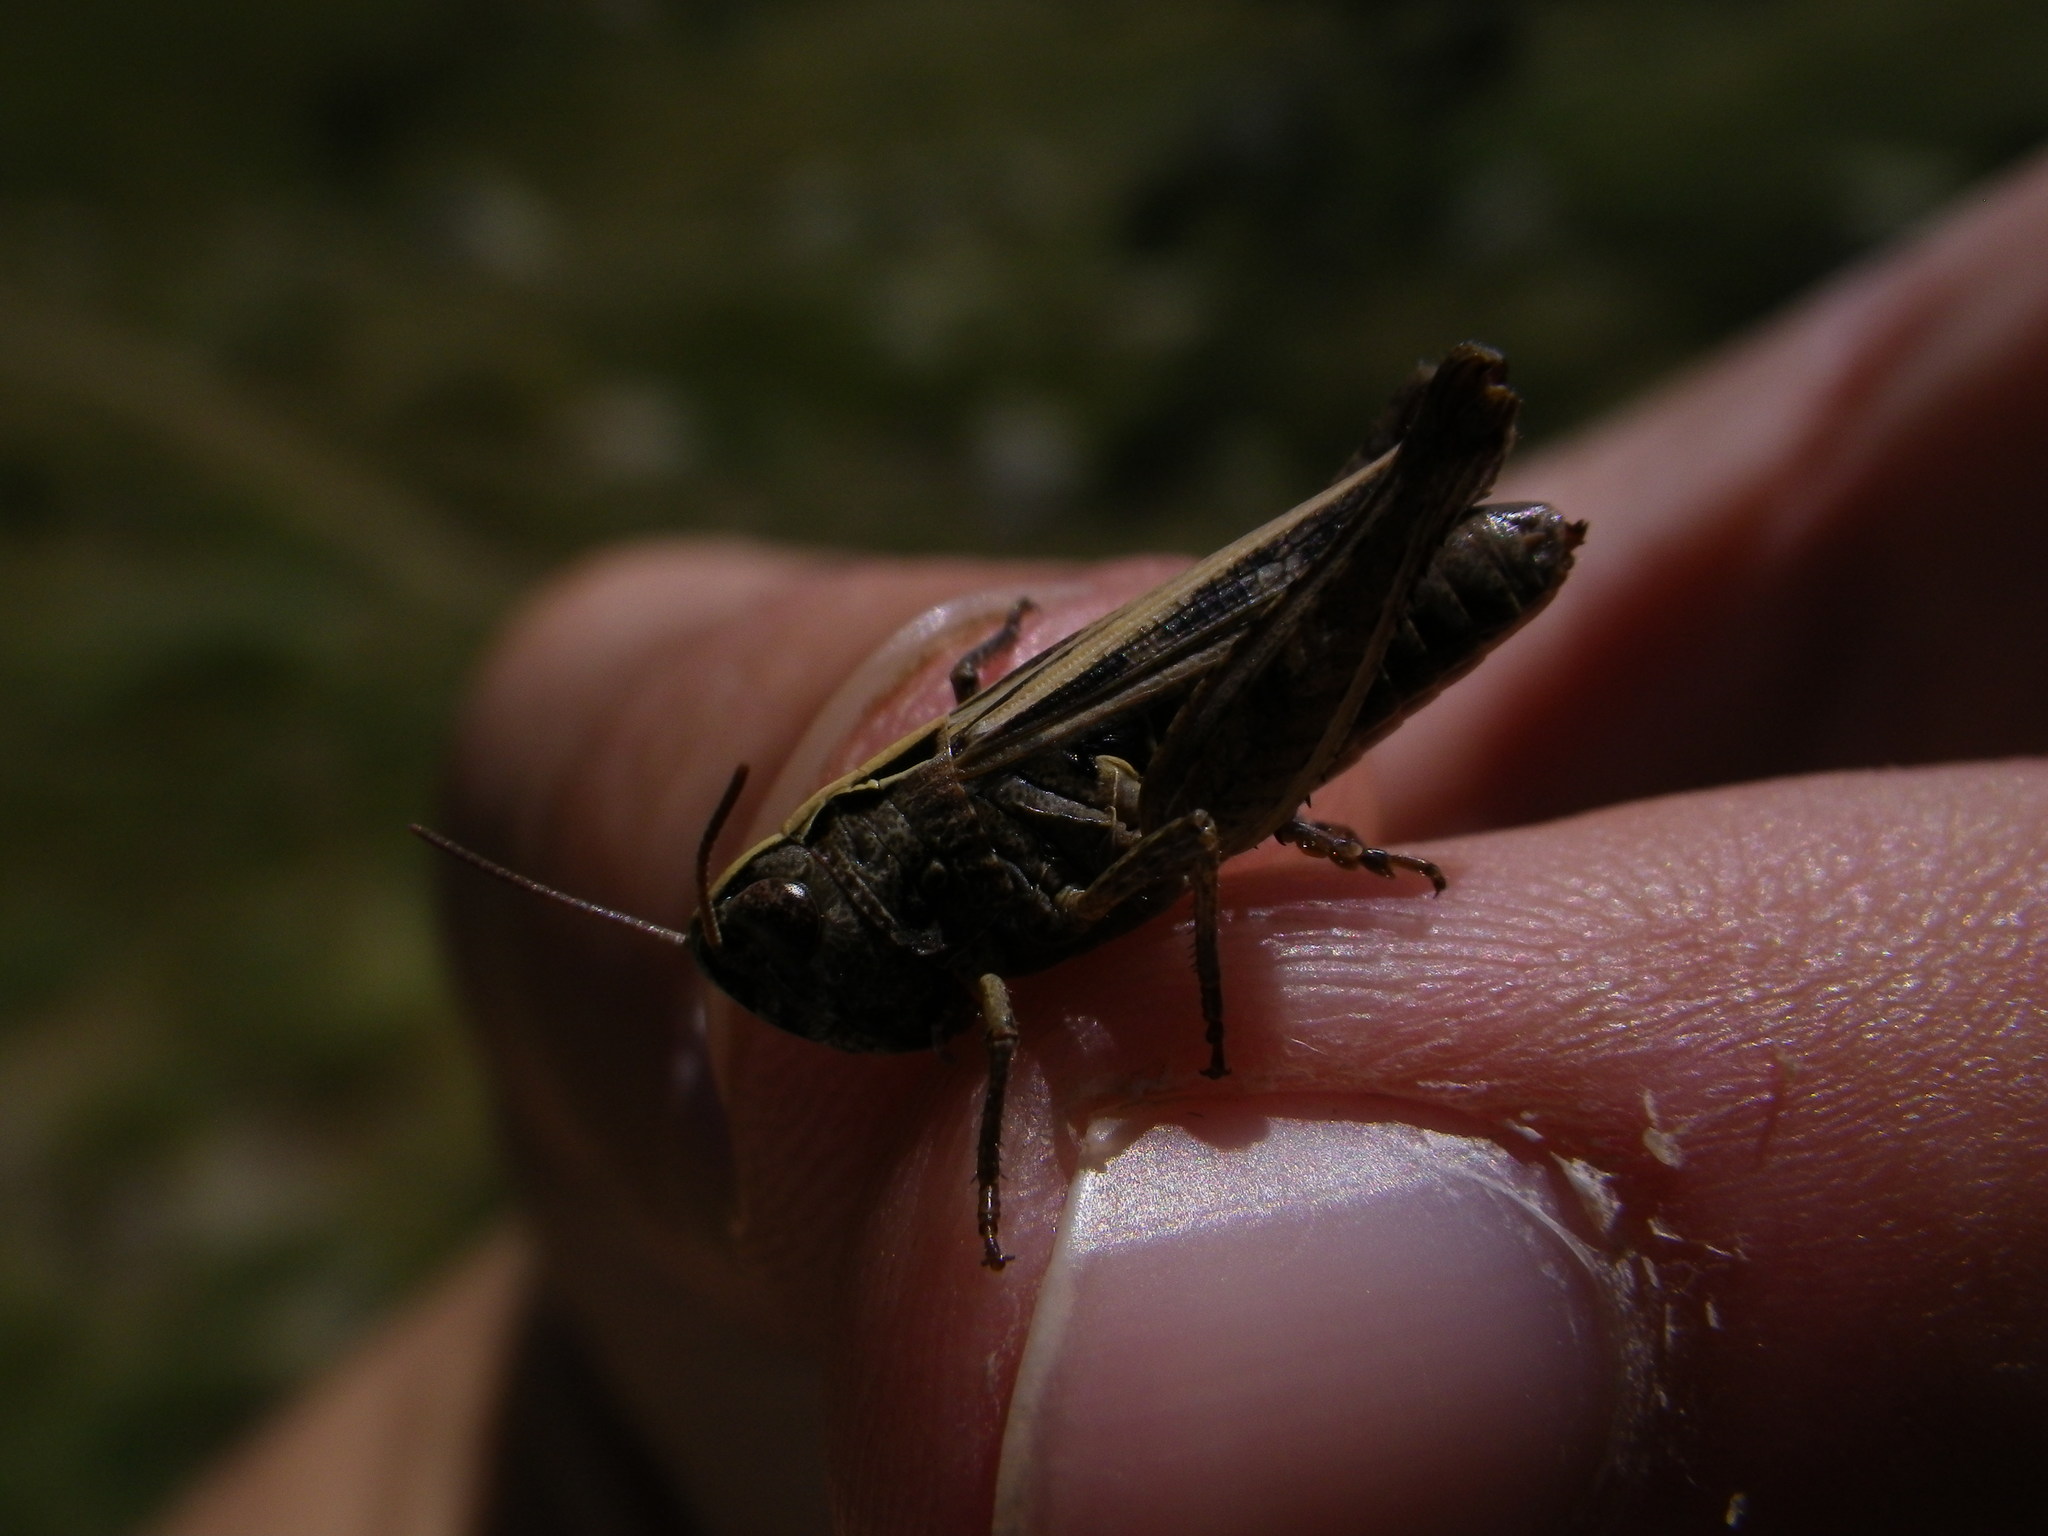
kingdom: Animalia
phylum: Arthropoda
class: Insecta
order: Orthoptera
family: Acrididae
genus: Omocestus
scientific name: Omocestus haemorrhoidalis
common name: Orange-tipped grasshopper
